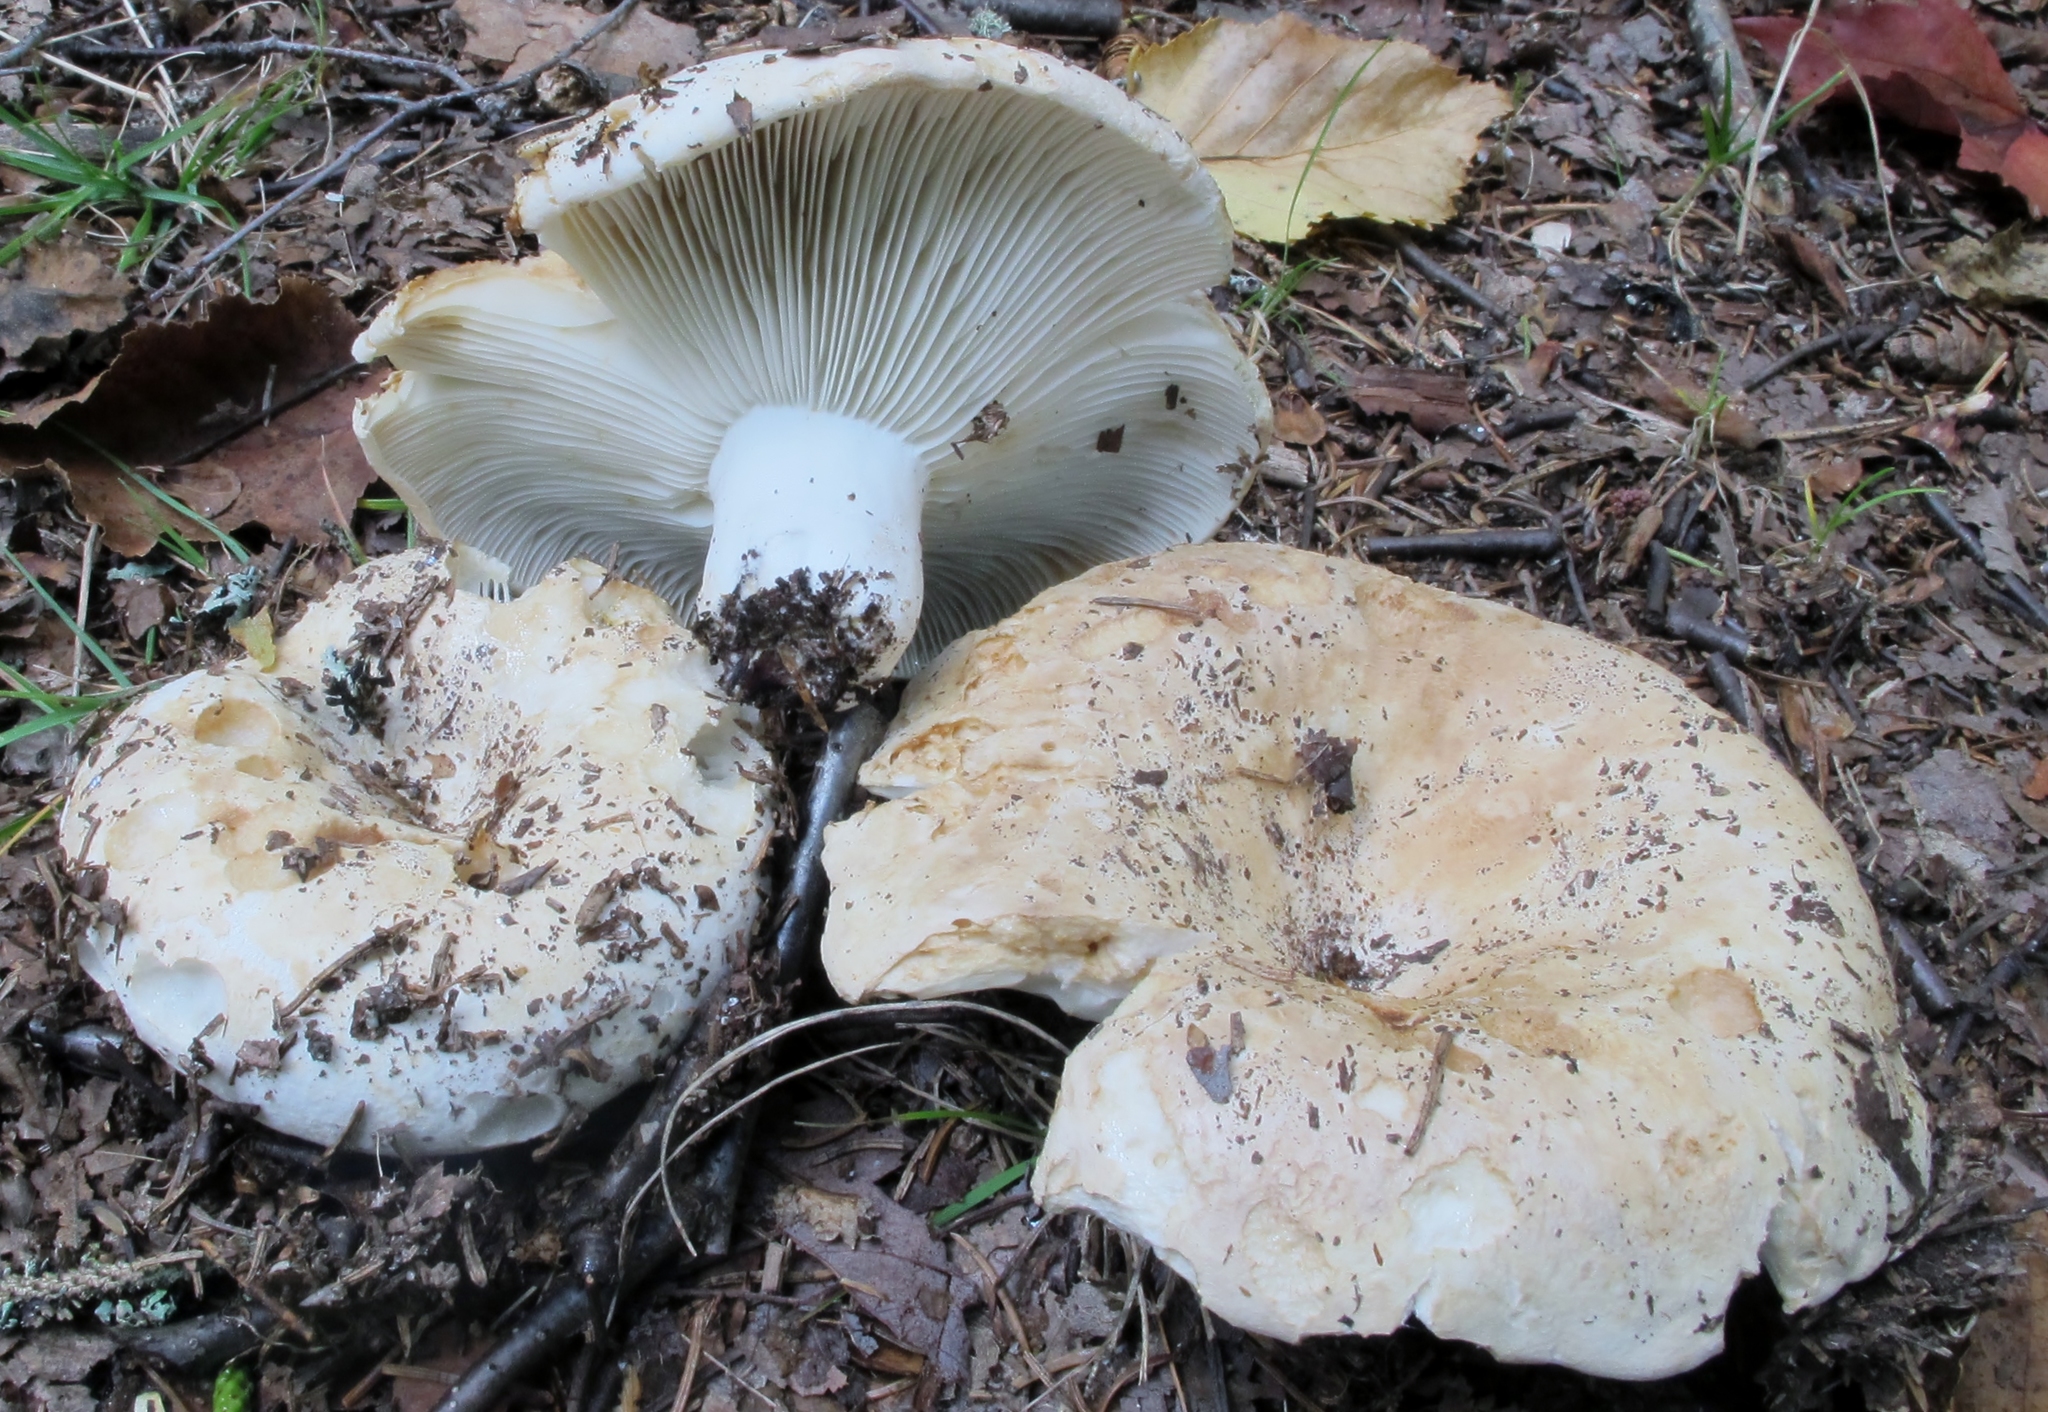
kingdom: Fungi
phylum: Basidiomycota
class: Agaricomycetes
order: Russulales
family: Russulaceae
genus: Russula
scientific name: Russula brevipes
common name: Short-stemmed russula
